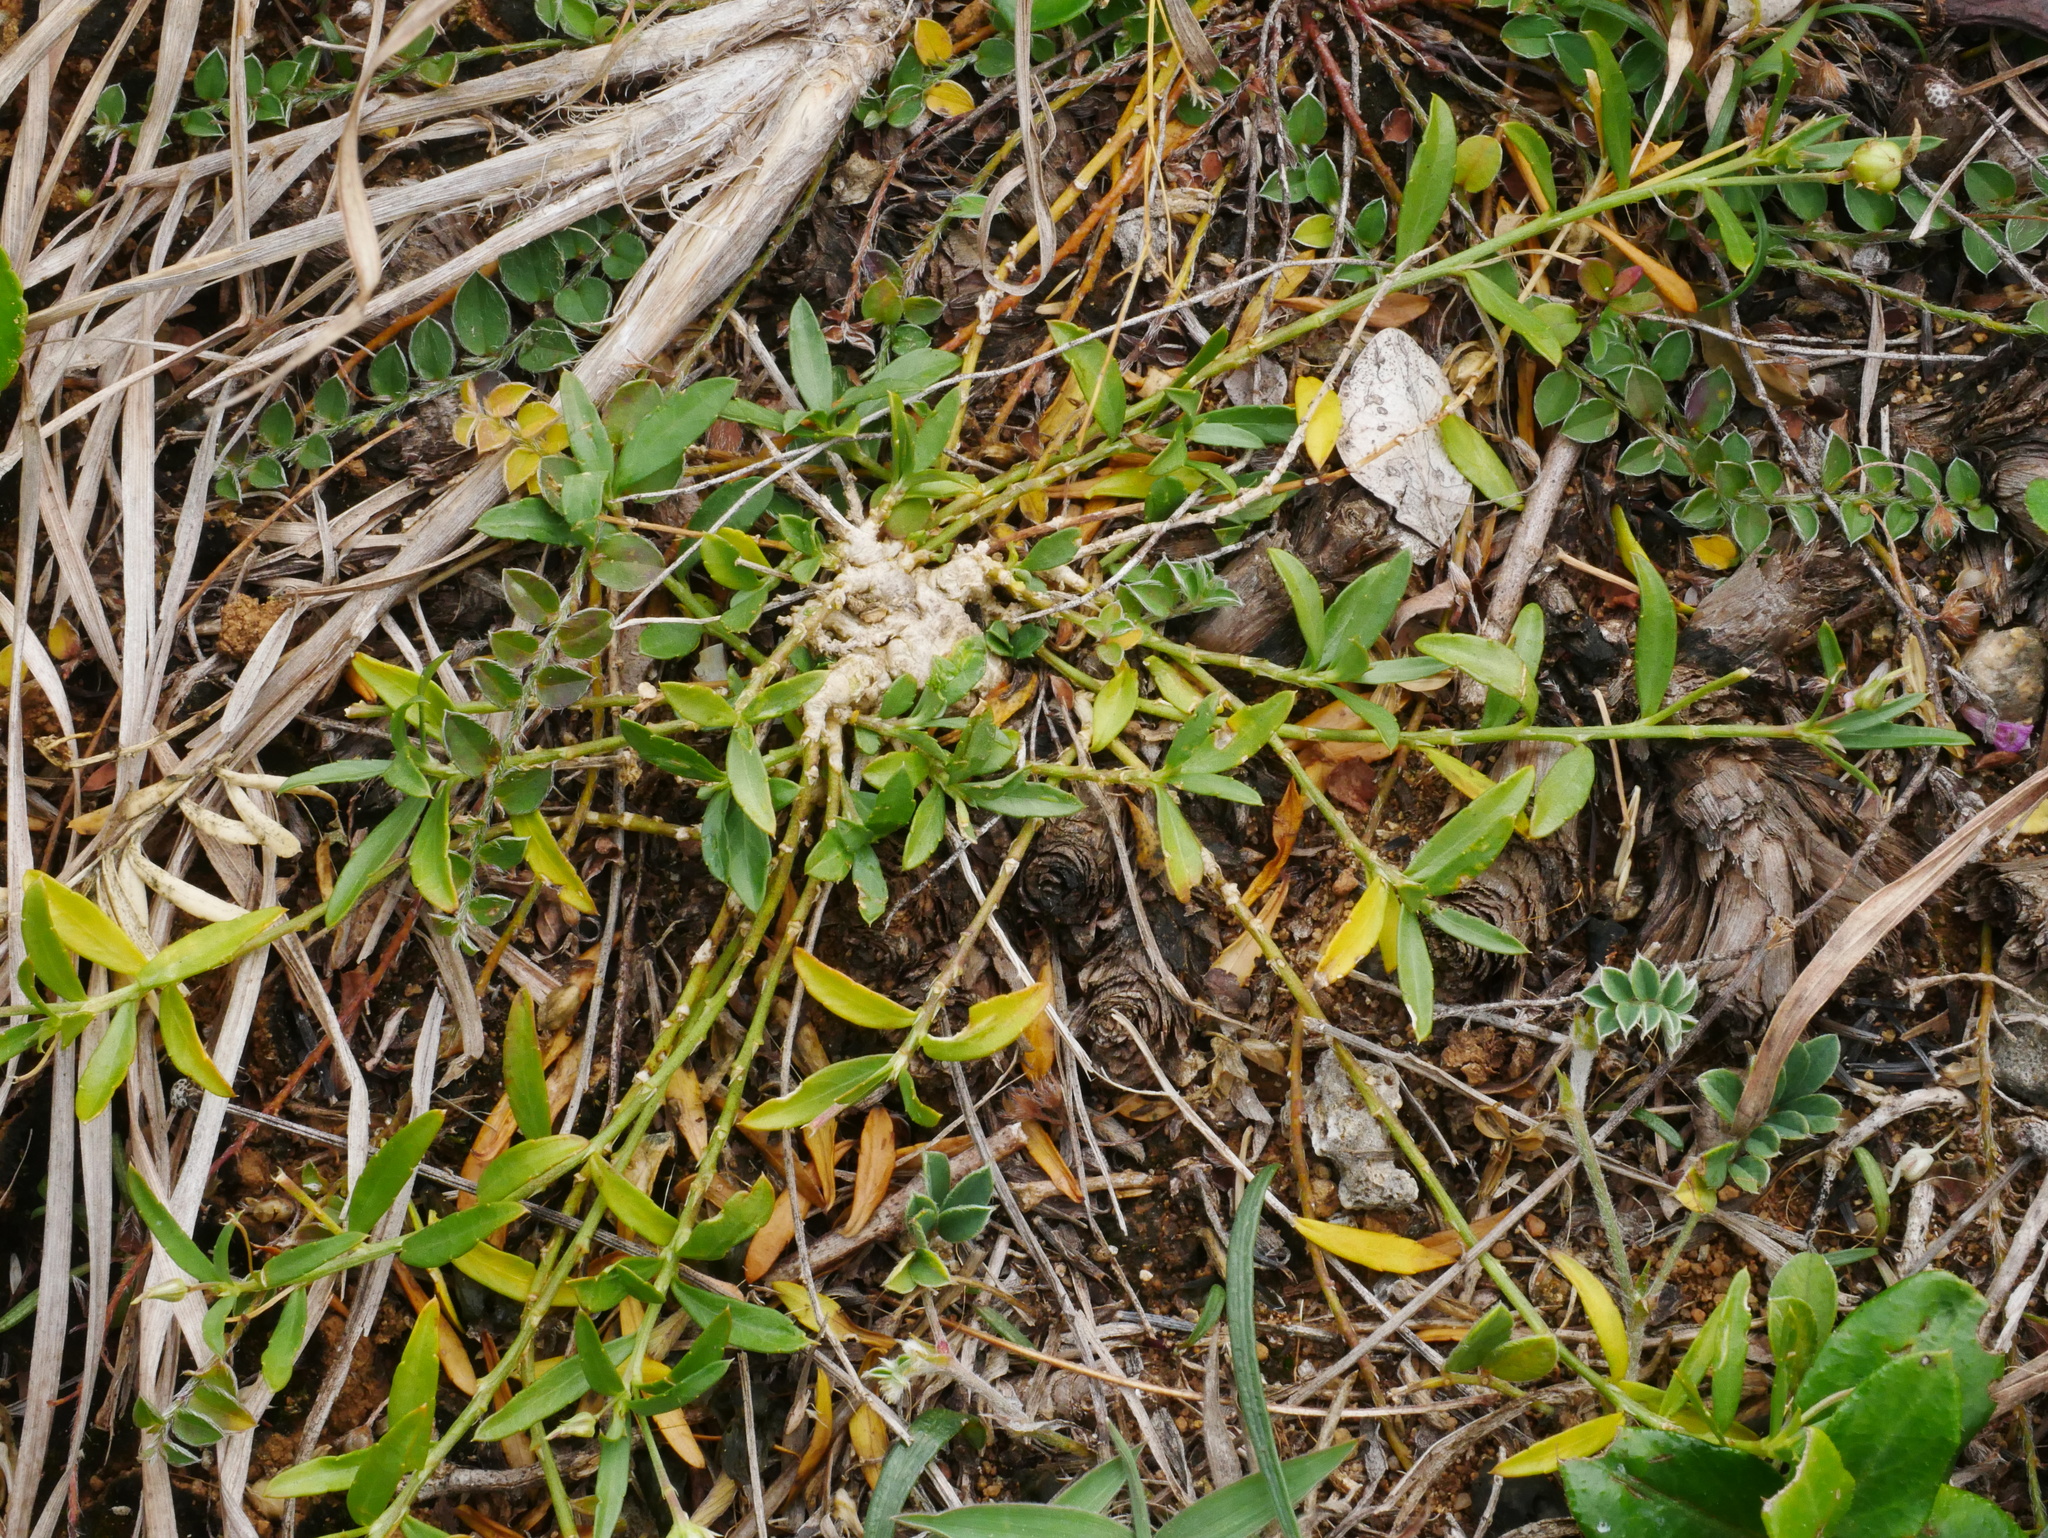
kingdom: Plantae
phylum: Tracheophyta
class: Magnoliopsida
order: Malpighiales
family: Violaceae
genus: Pigea
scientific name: Pigea enneasperma
